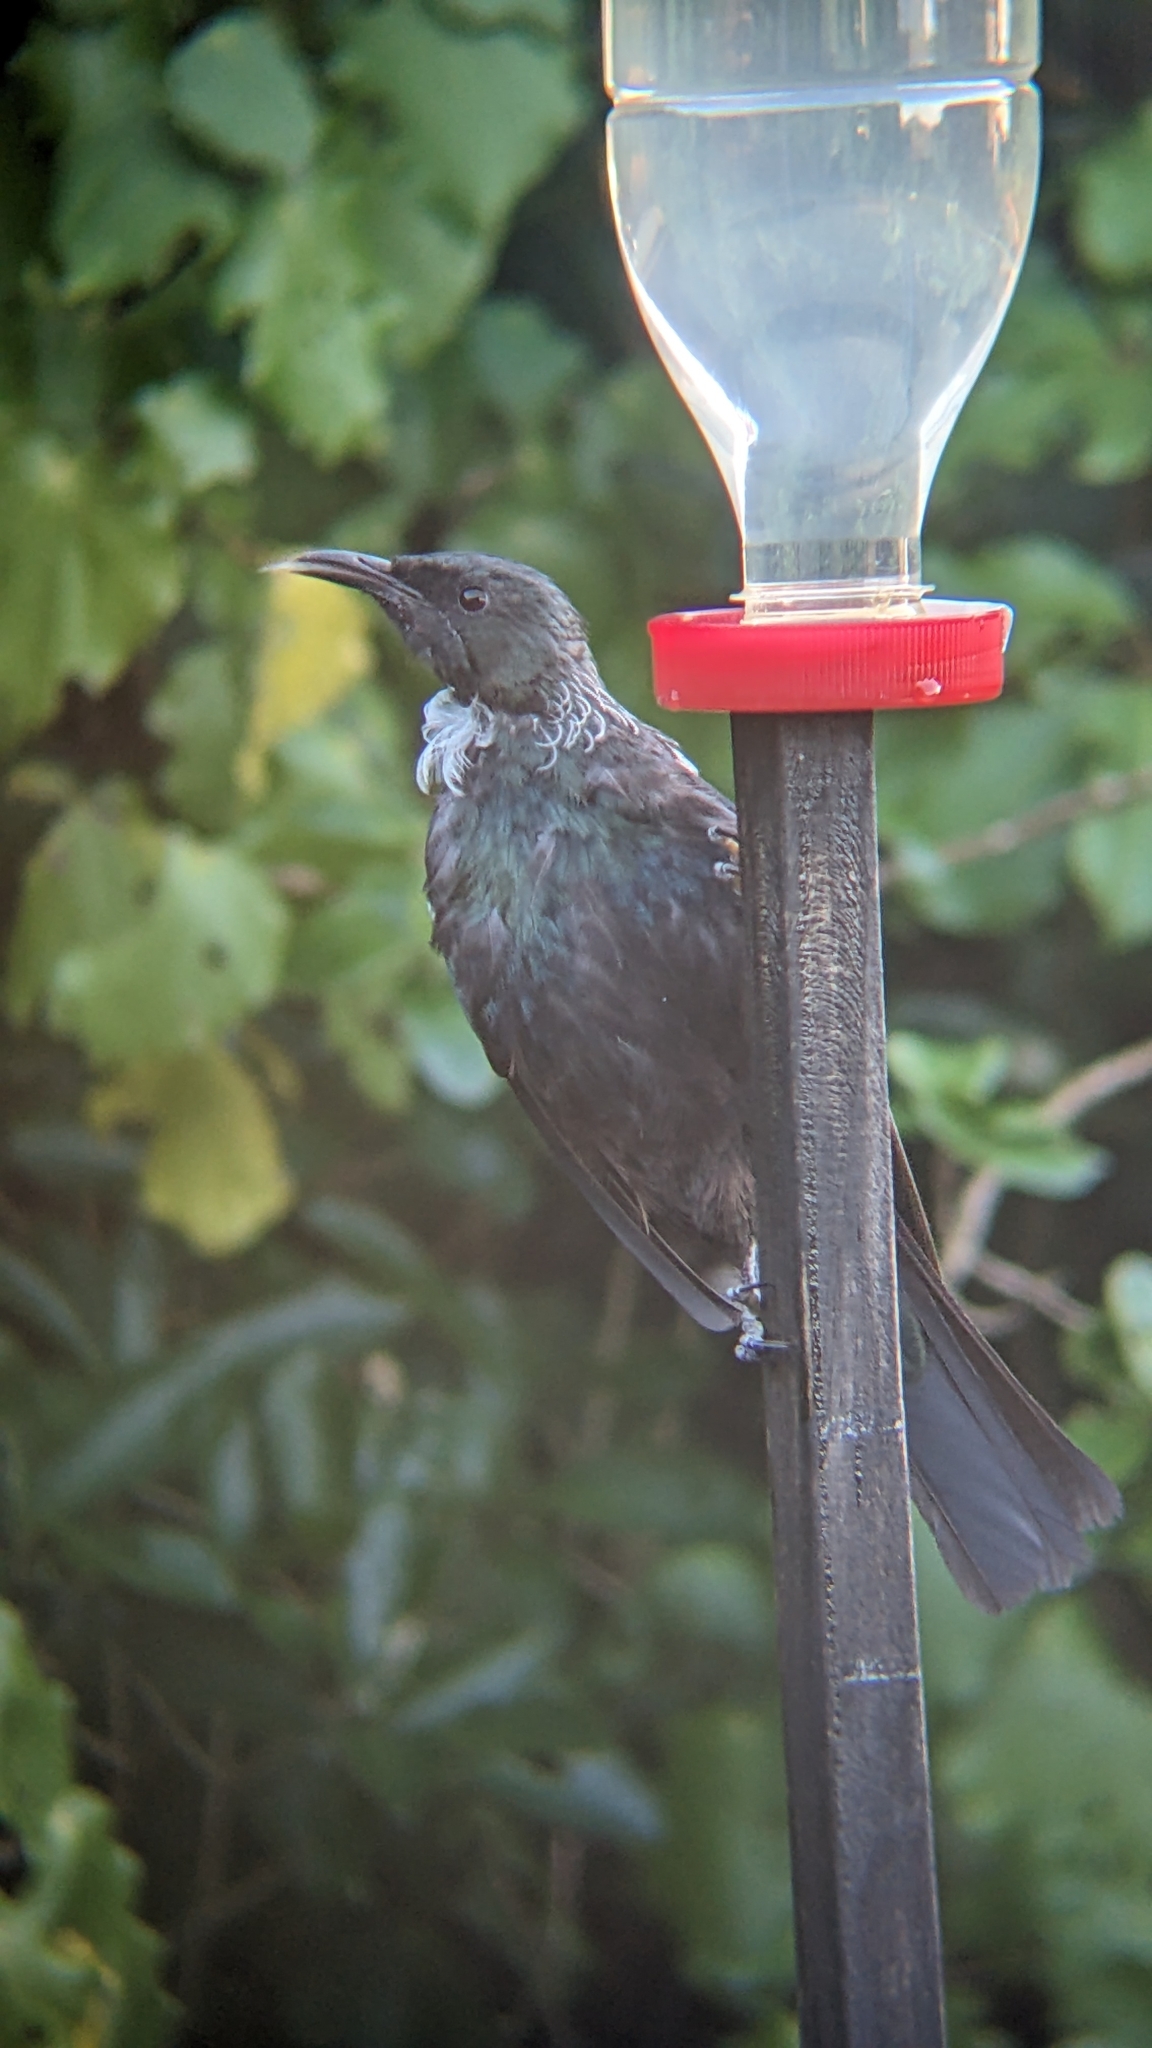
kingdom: Animalia
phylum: Chordata
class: Aves
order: Passeriformes
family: Meliphagidae
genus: Prosthemadera
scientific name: Prosthemadera novaeseelandiae
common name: Tui
